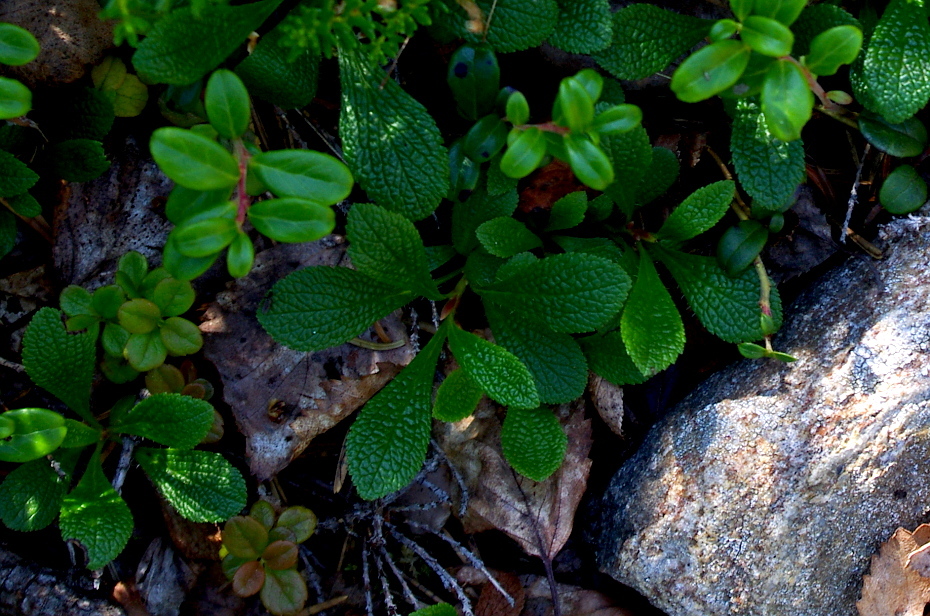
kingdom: Plantae
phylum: Tracheophyta
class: Magnoliopsida
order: Ericales
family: Ericaceae
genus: Arctostaphylos
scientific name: Arctostaphylos alpinus
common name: Alpine bearberry
